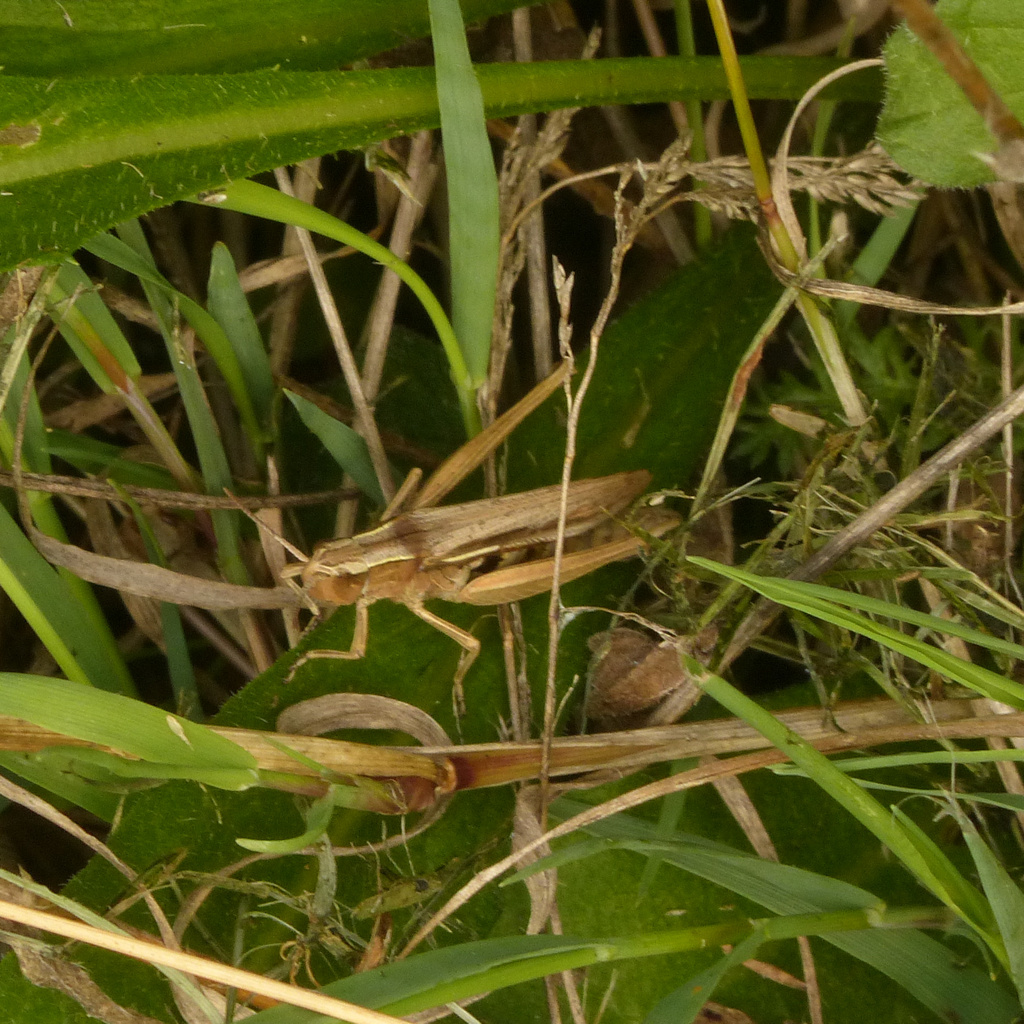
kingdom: Animalia
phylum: Arthropoda
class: Insecta
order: Orthoptera
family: Acrididae
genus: Chorthippus
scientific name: Chorthippus albomarginatus
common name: Lesser marsh grasshopper
